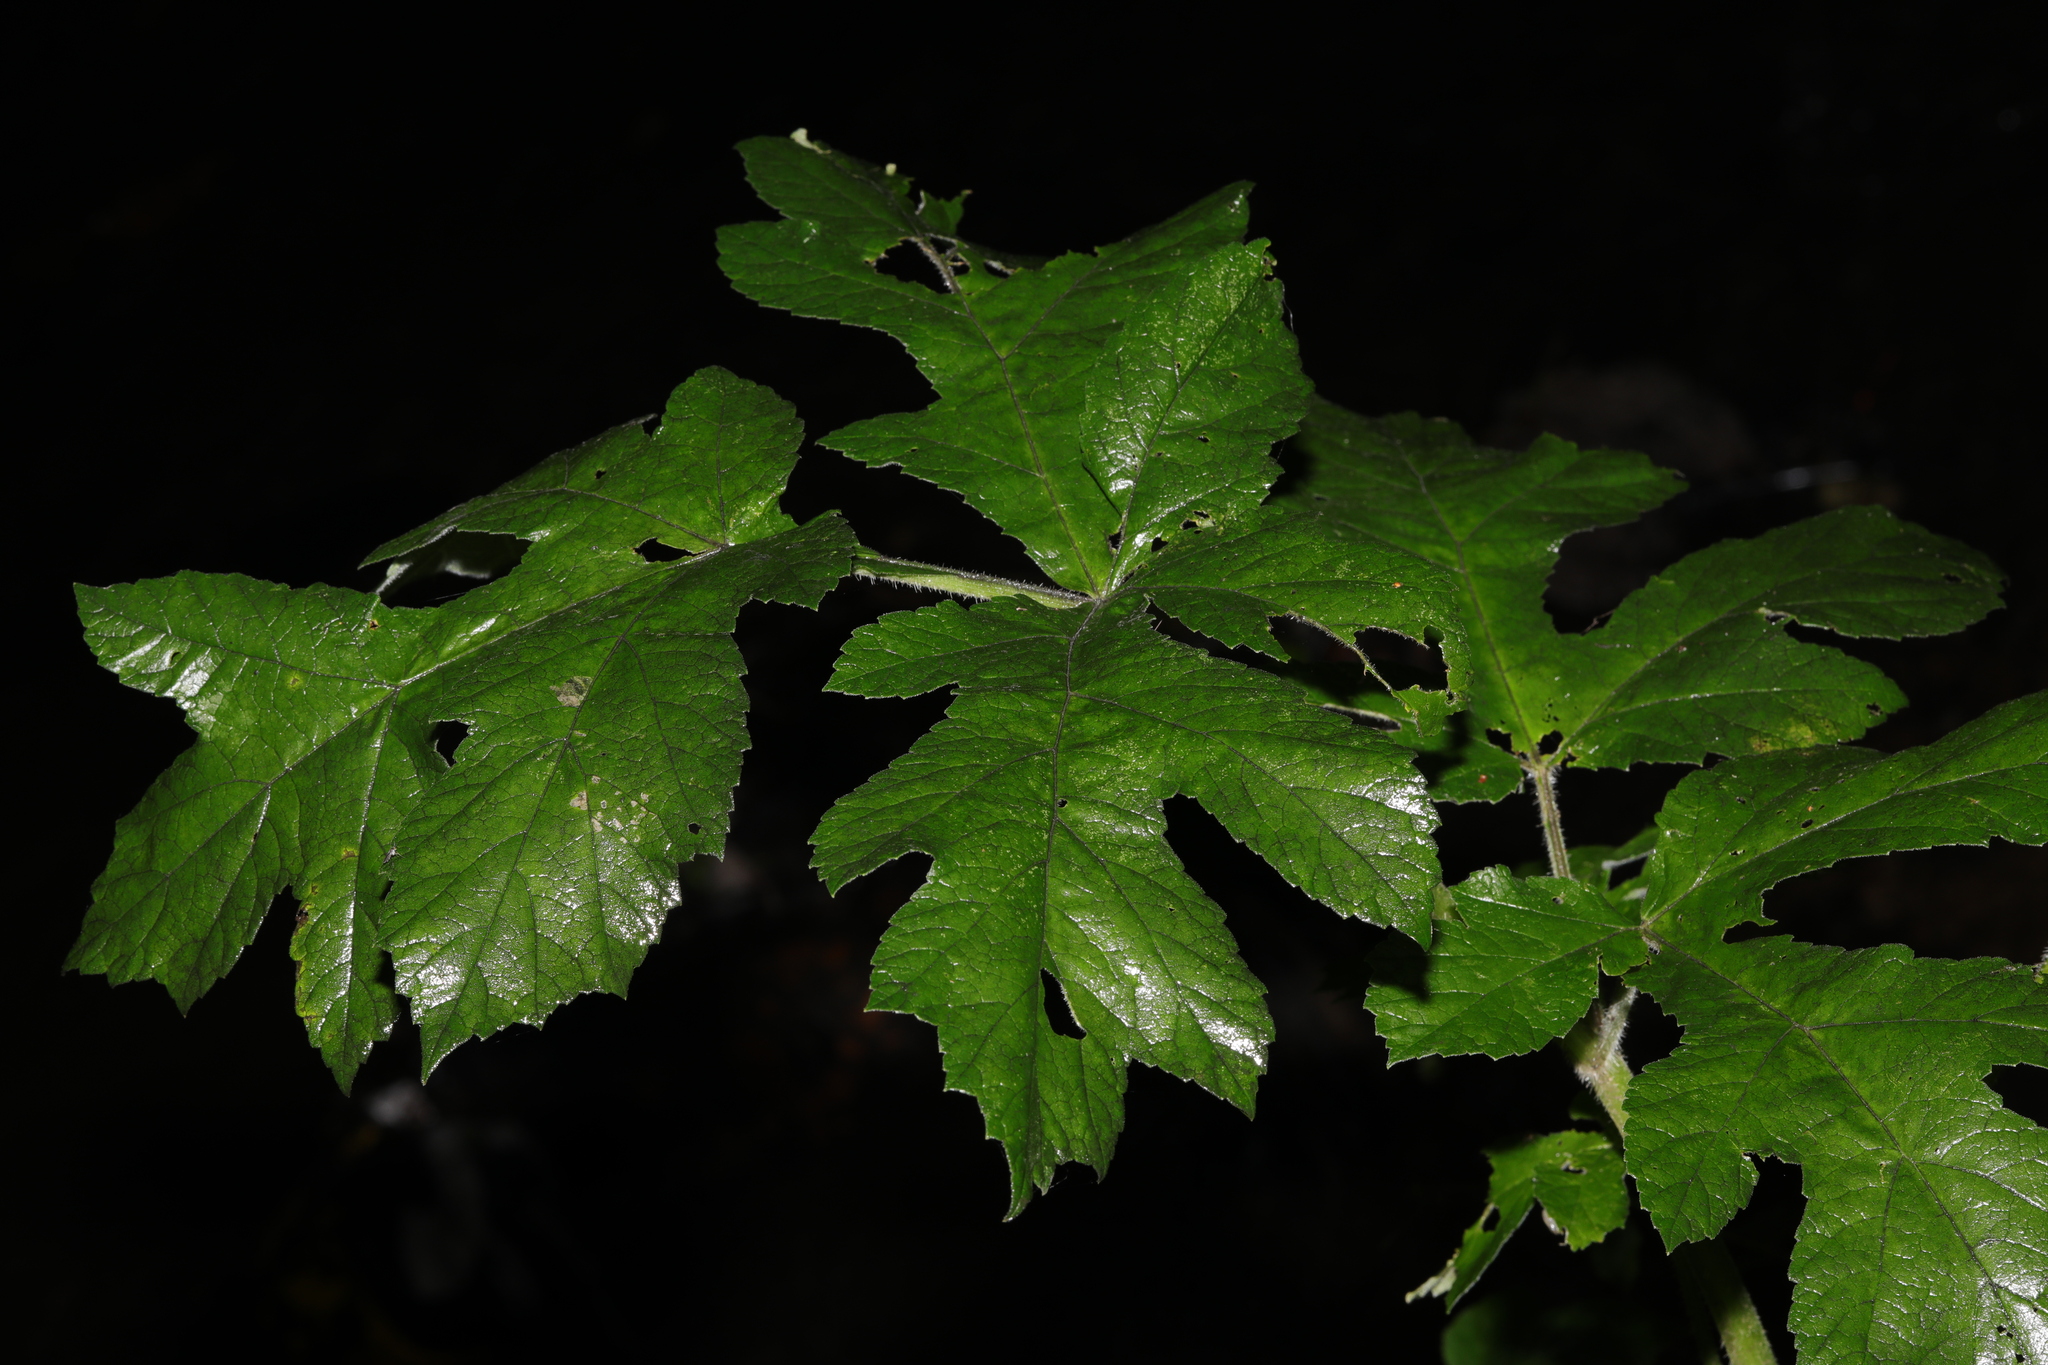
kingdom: Plantae
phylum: Tracheophyta
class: Magnoliopsida
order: Apiales
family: Apiaceae
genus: Heracleum
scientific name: Heracleum sphondylium
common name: Hogweed
